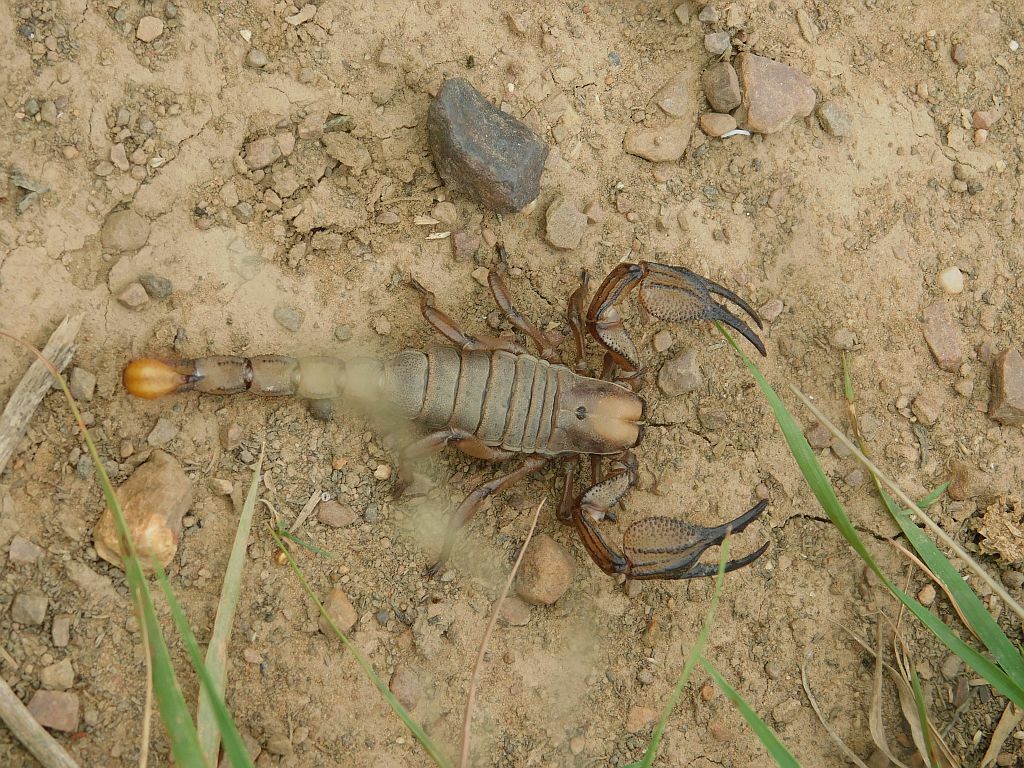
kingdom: Animalia
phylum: Arthropoda
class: Arachnida
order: Scorpiones
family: Scorpionidae
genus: Opistophthalmus
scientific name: Opistophthalmus macer
